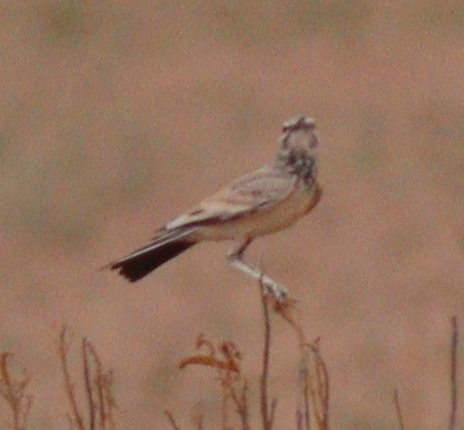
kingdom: Animalia
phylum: Chordata
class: Aves
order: Passeriformes
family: Alaudidae
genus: Alaemon
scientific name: Alaemon alaudipes
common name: Greater hoopoe-lark
